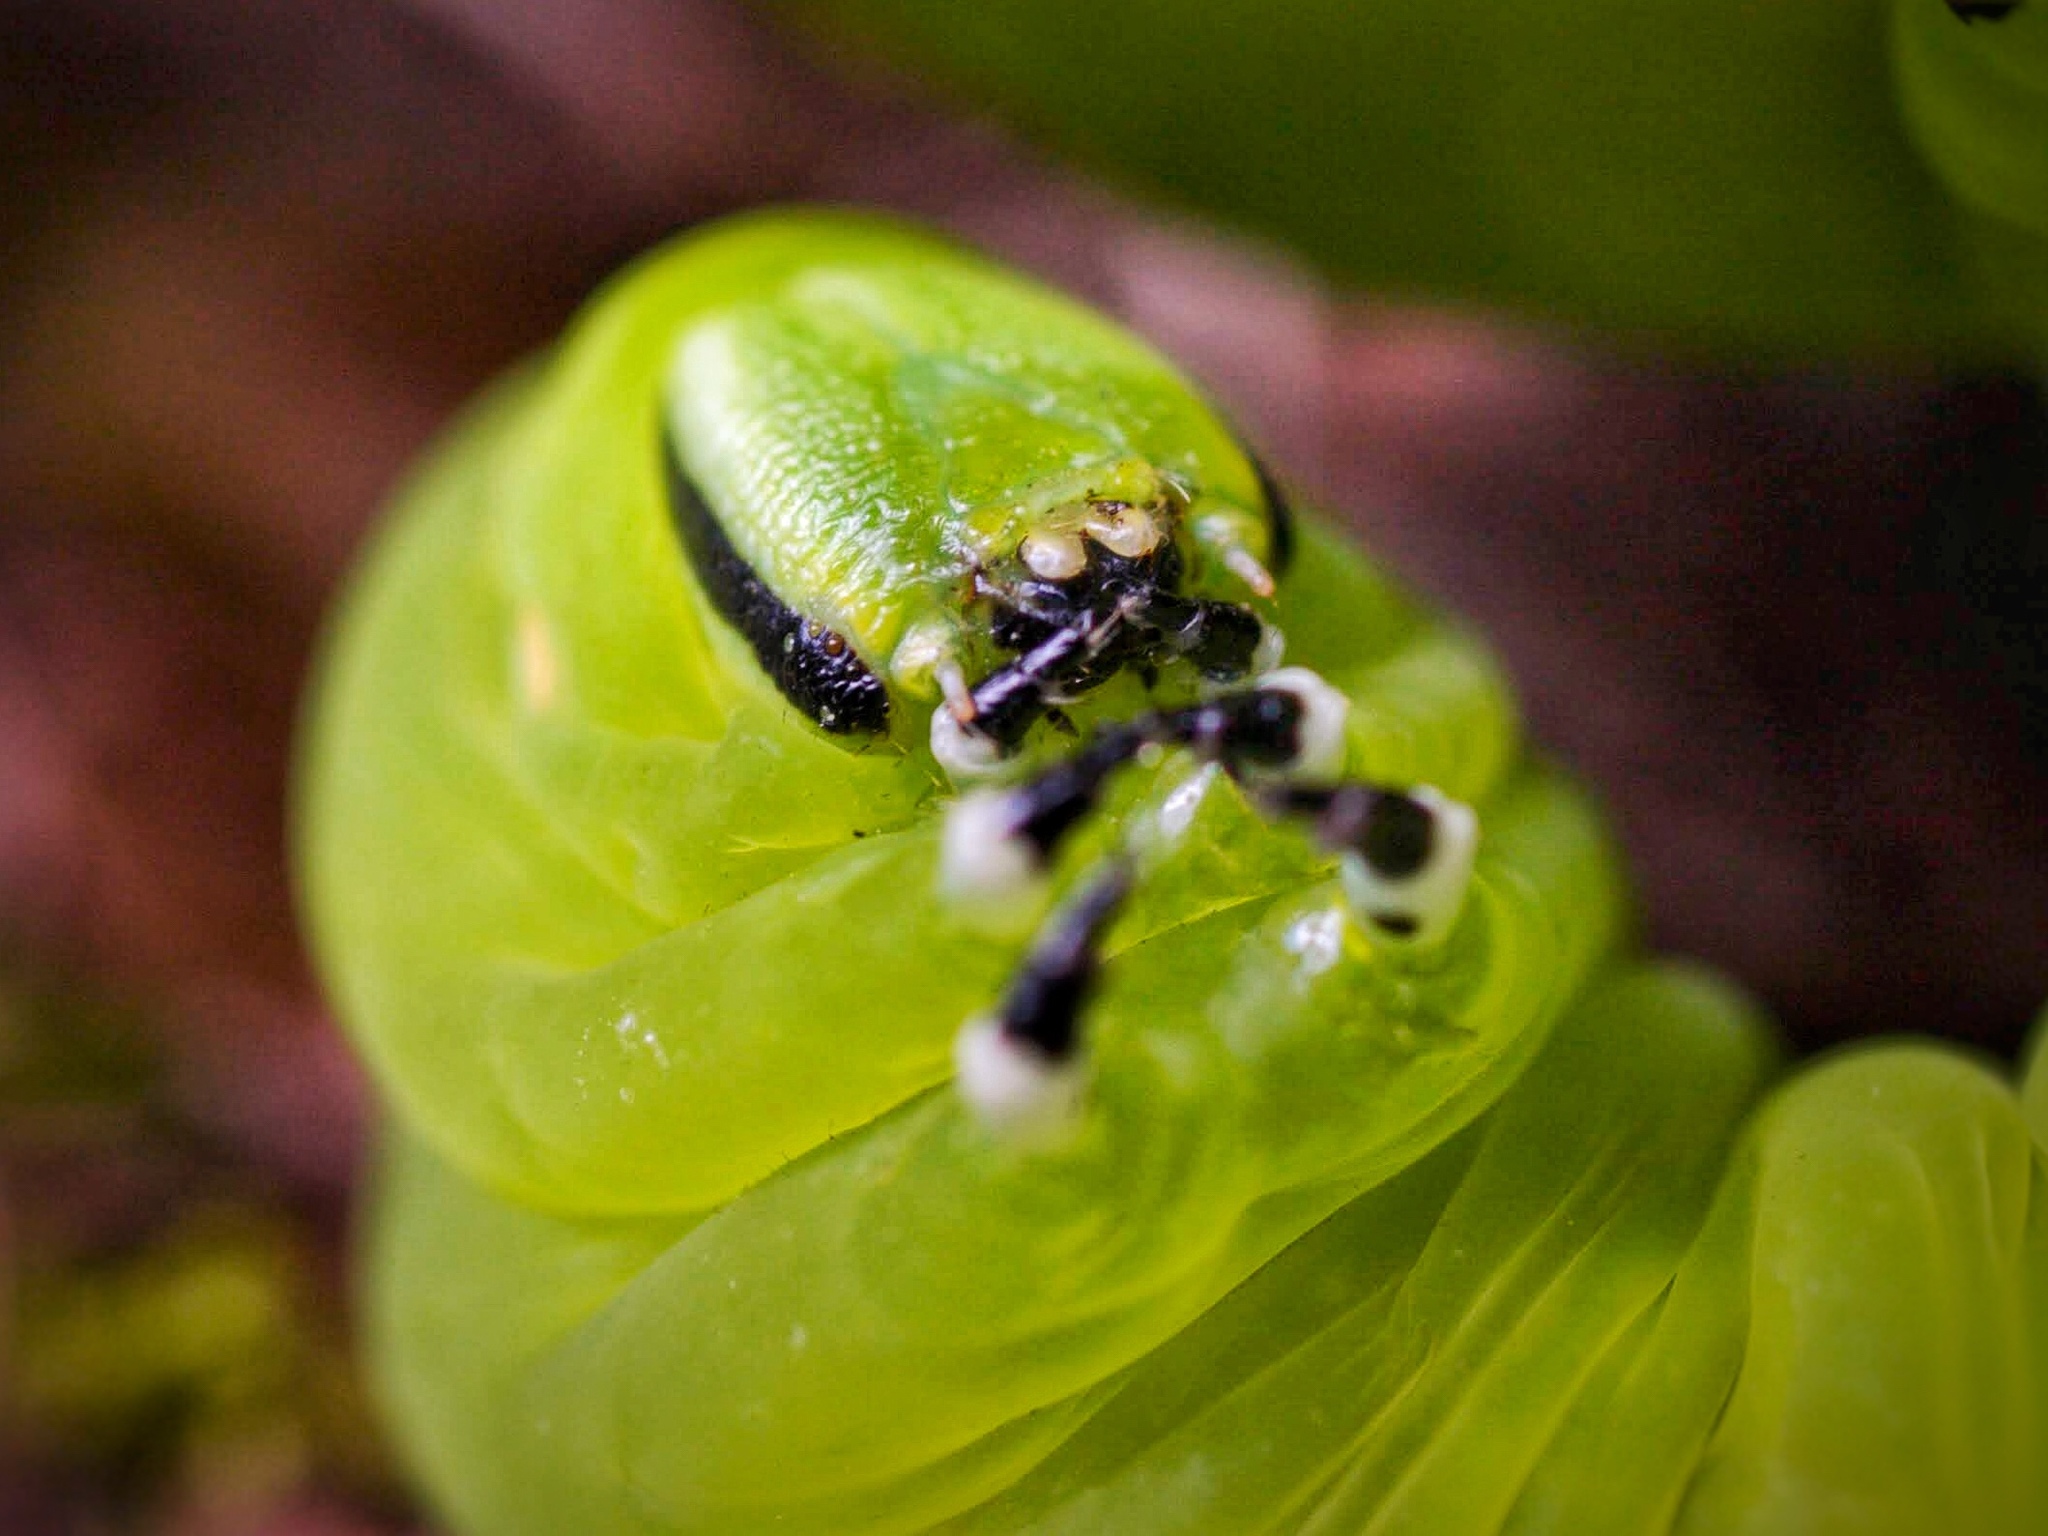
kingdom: Animalia
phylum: Arthropoda
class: Insecta
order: Lepidoptera
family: Sphingidae
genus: Sphinx
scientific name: Sphinx kalmiae
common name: Laurel sphinx
